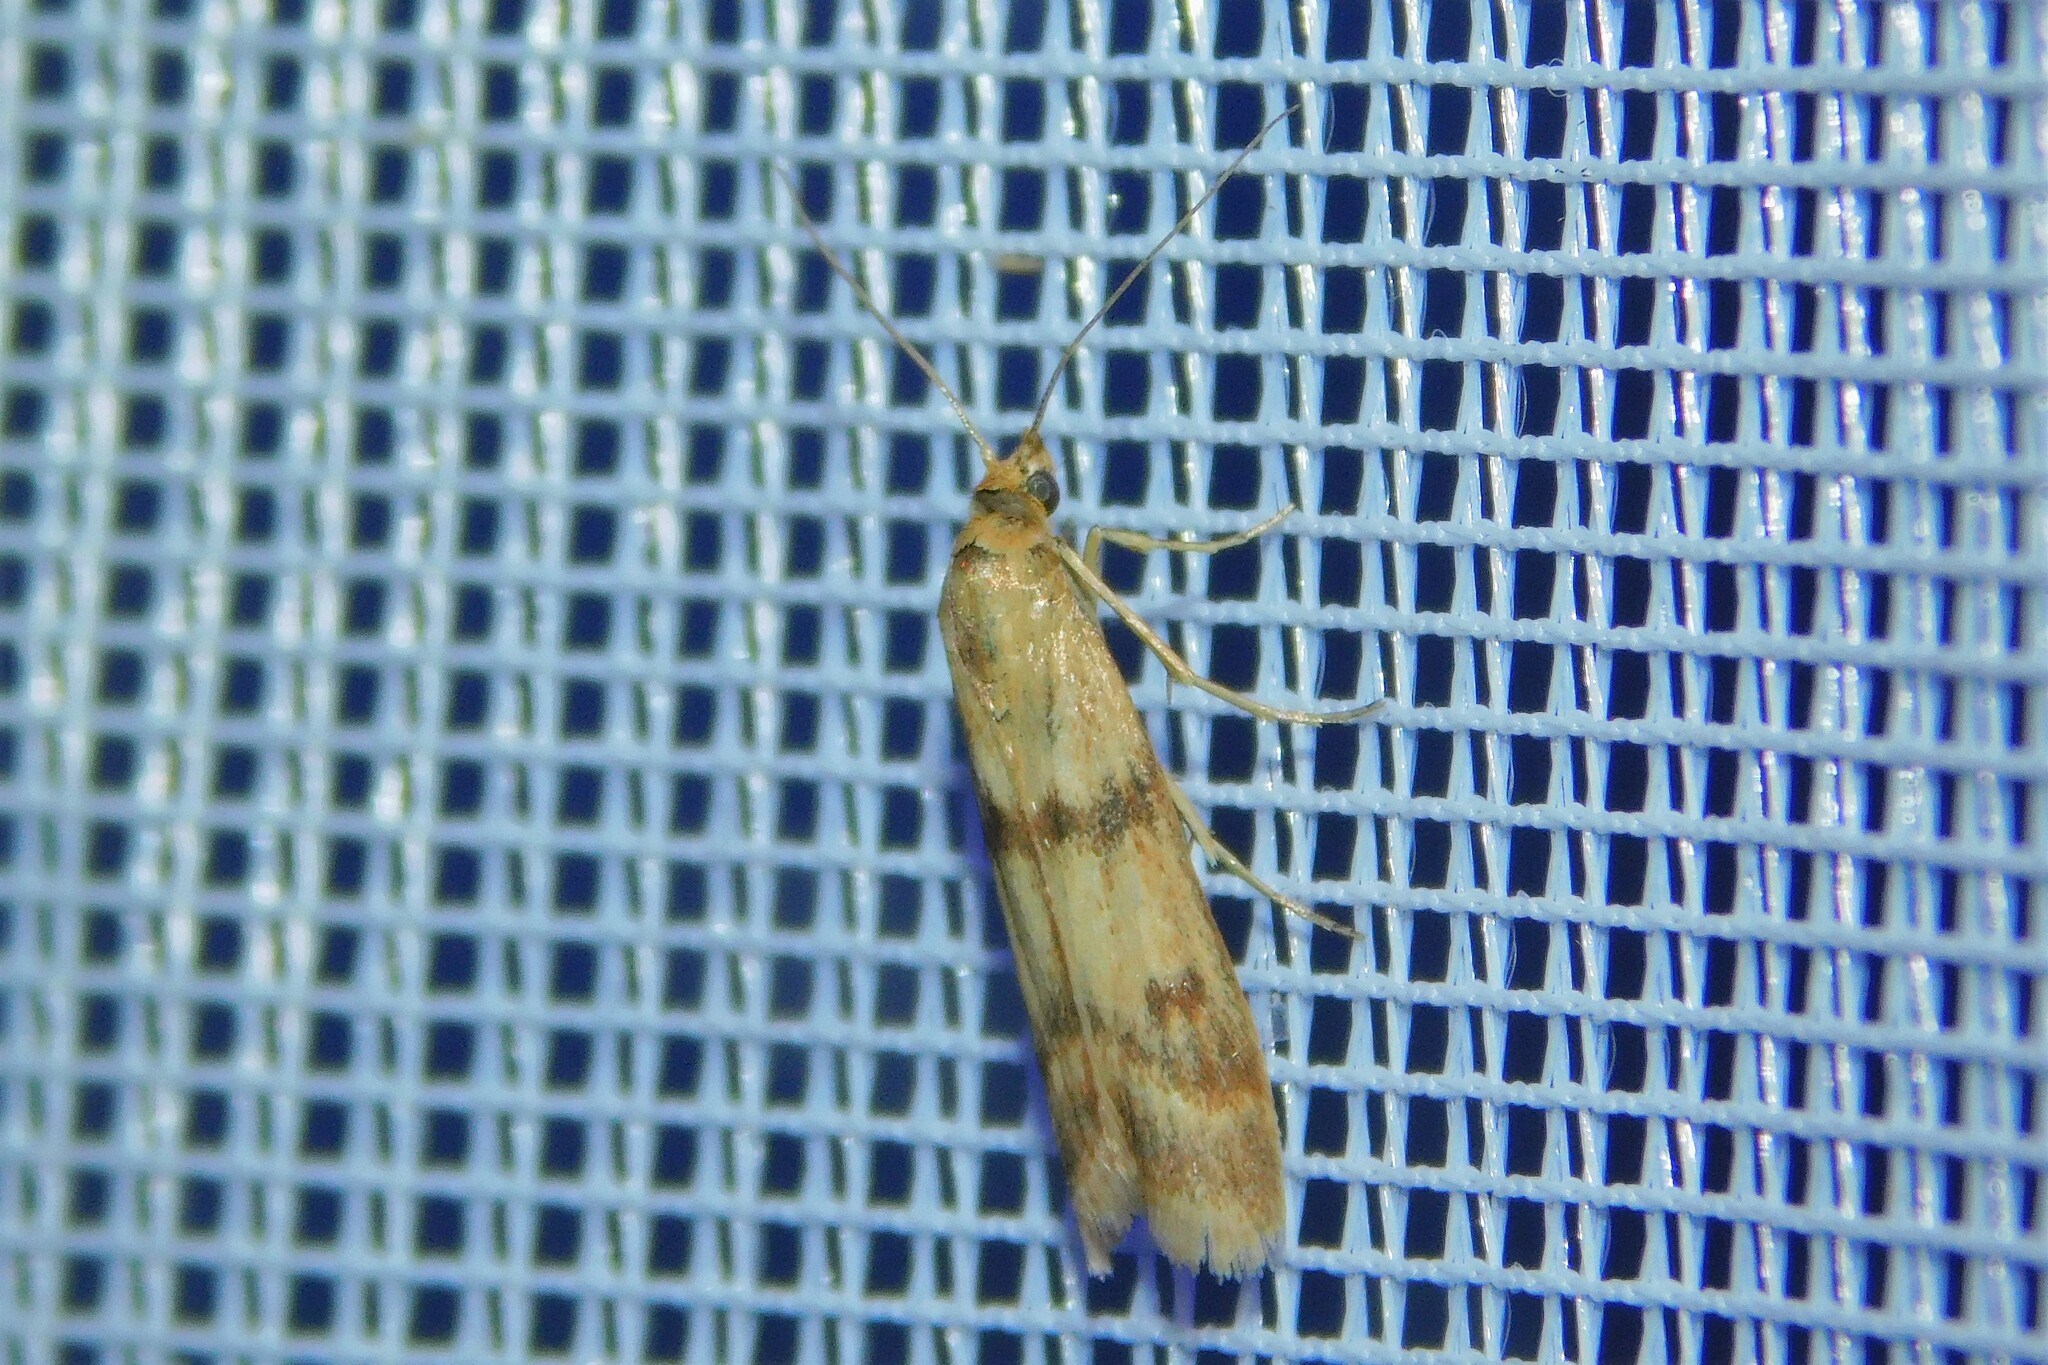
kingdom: Animalia
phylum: Arthropoda
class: Insecta
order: Lepidoptera
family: Pyralidae
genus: Homoeosoma
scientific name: Homoeosoma sinuella
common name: Twin-barred knot-horn
